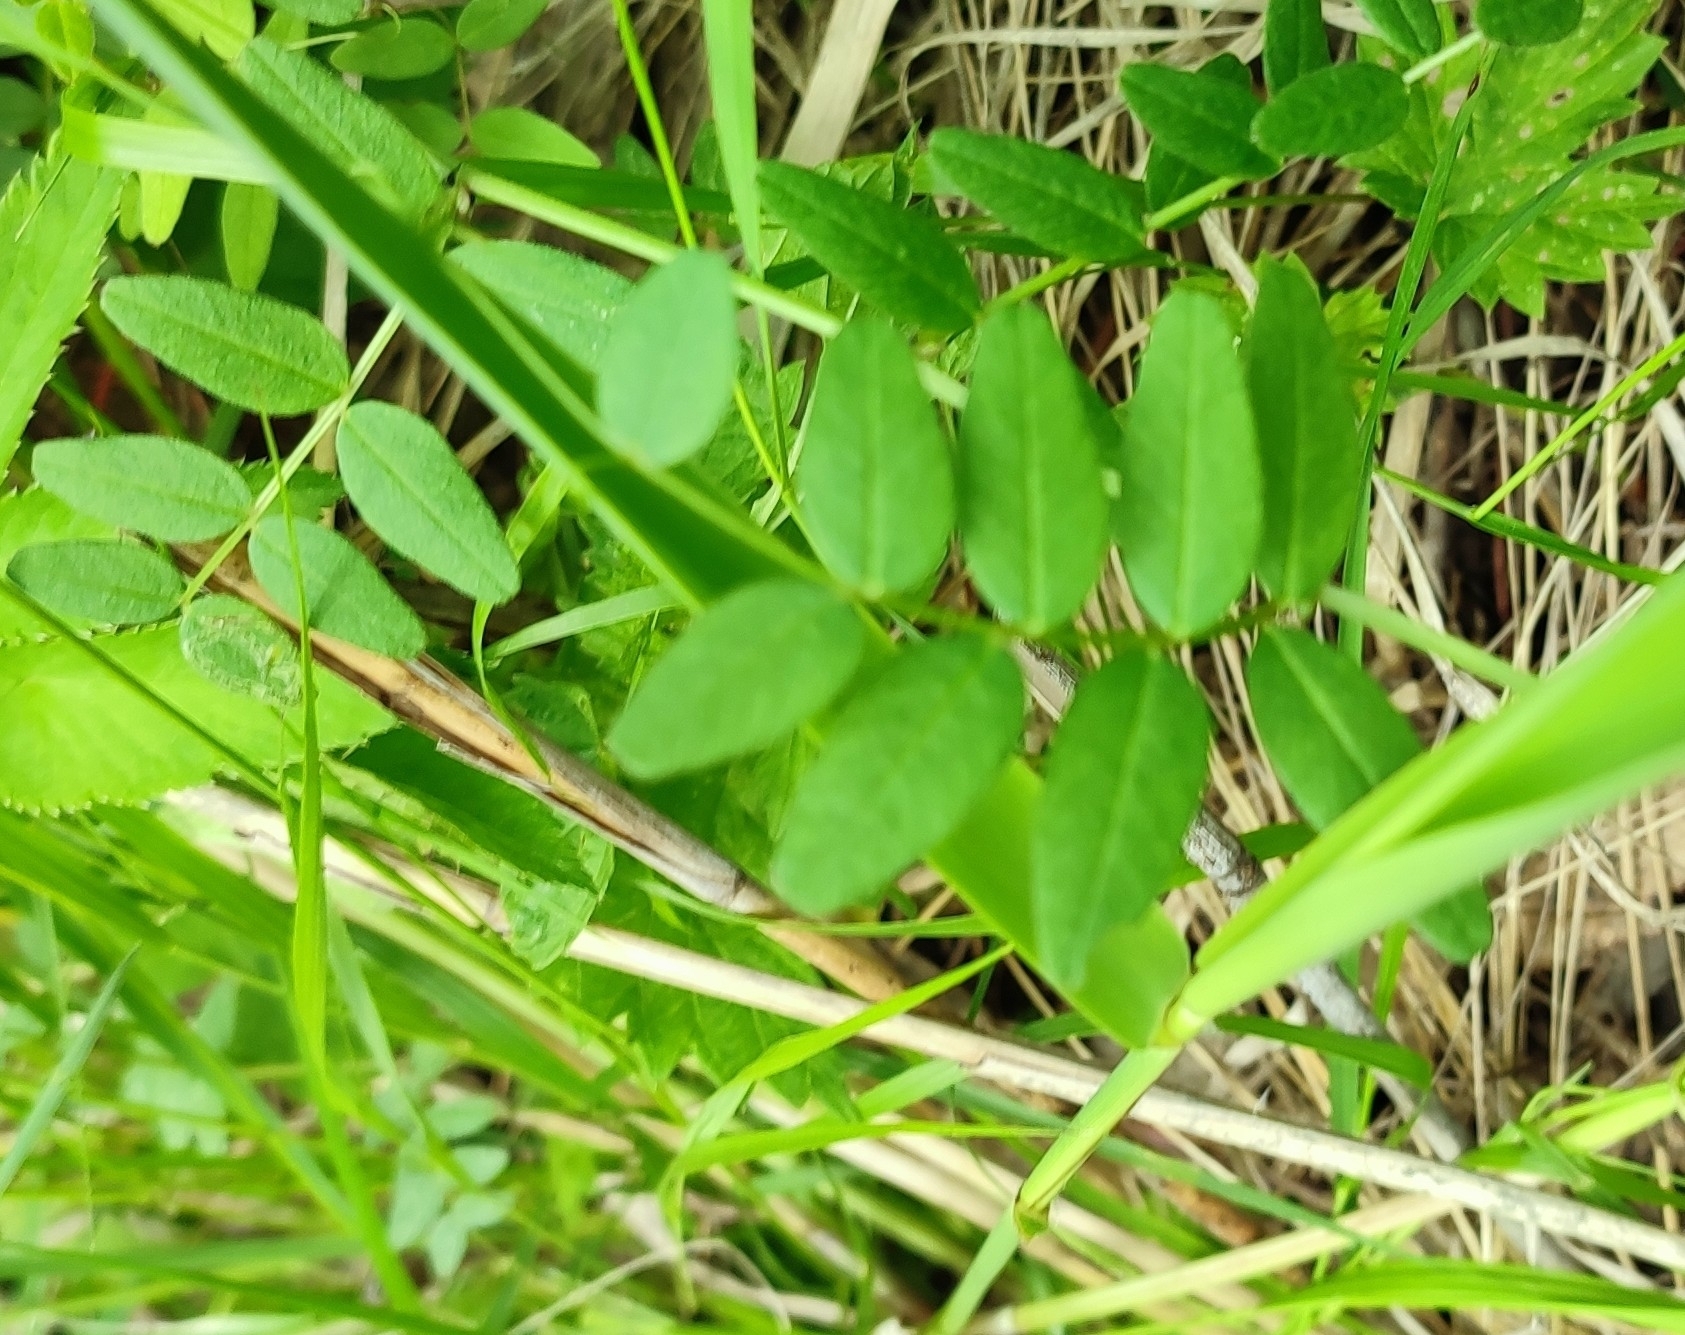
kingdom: Plantae
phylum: Tracheophyta
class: Magnoliopsida
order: Fabales
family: Fabaceae
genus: Vicia
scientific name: Vicia sepium
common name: Bush vetch
